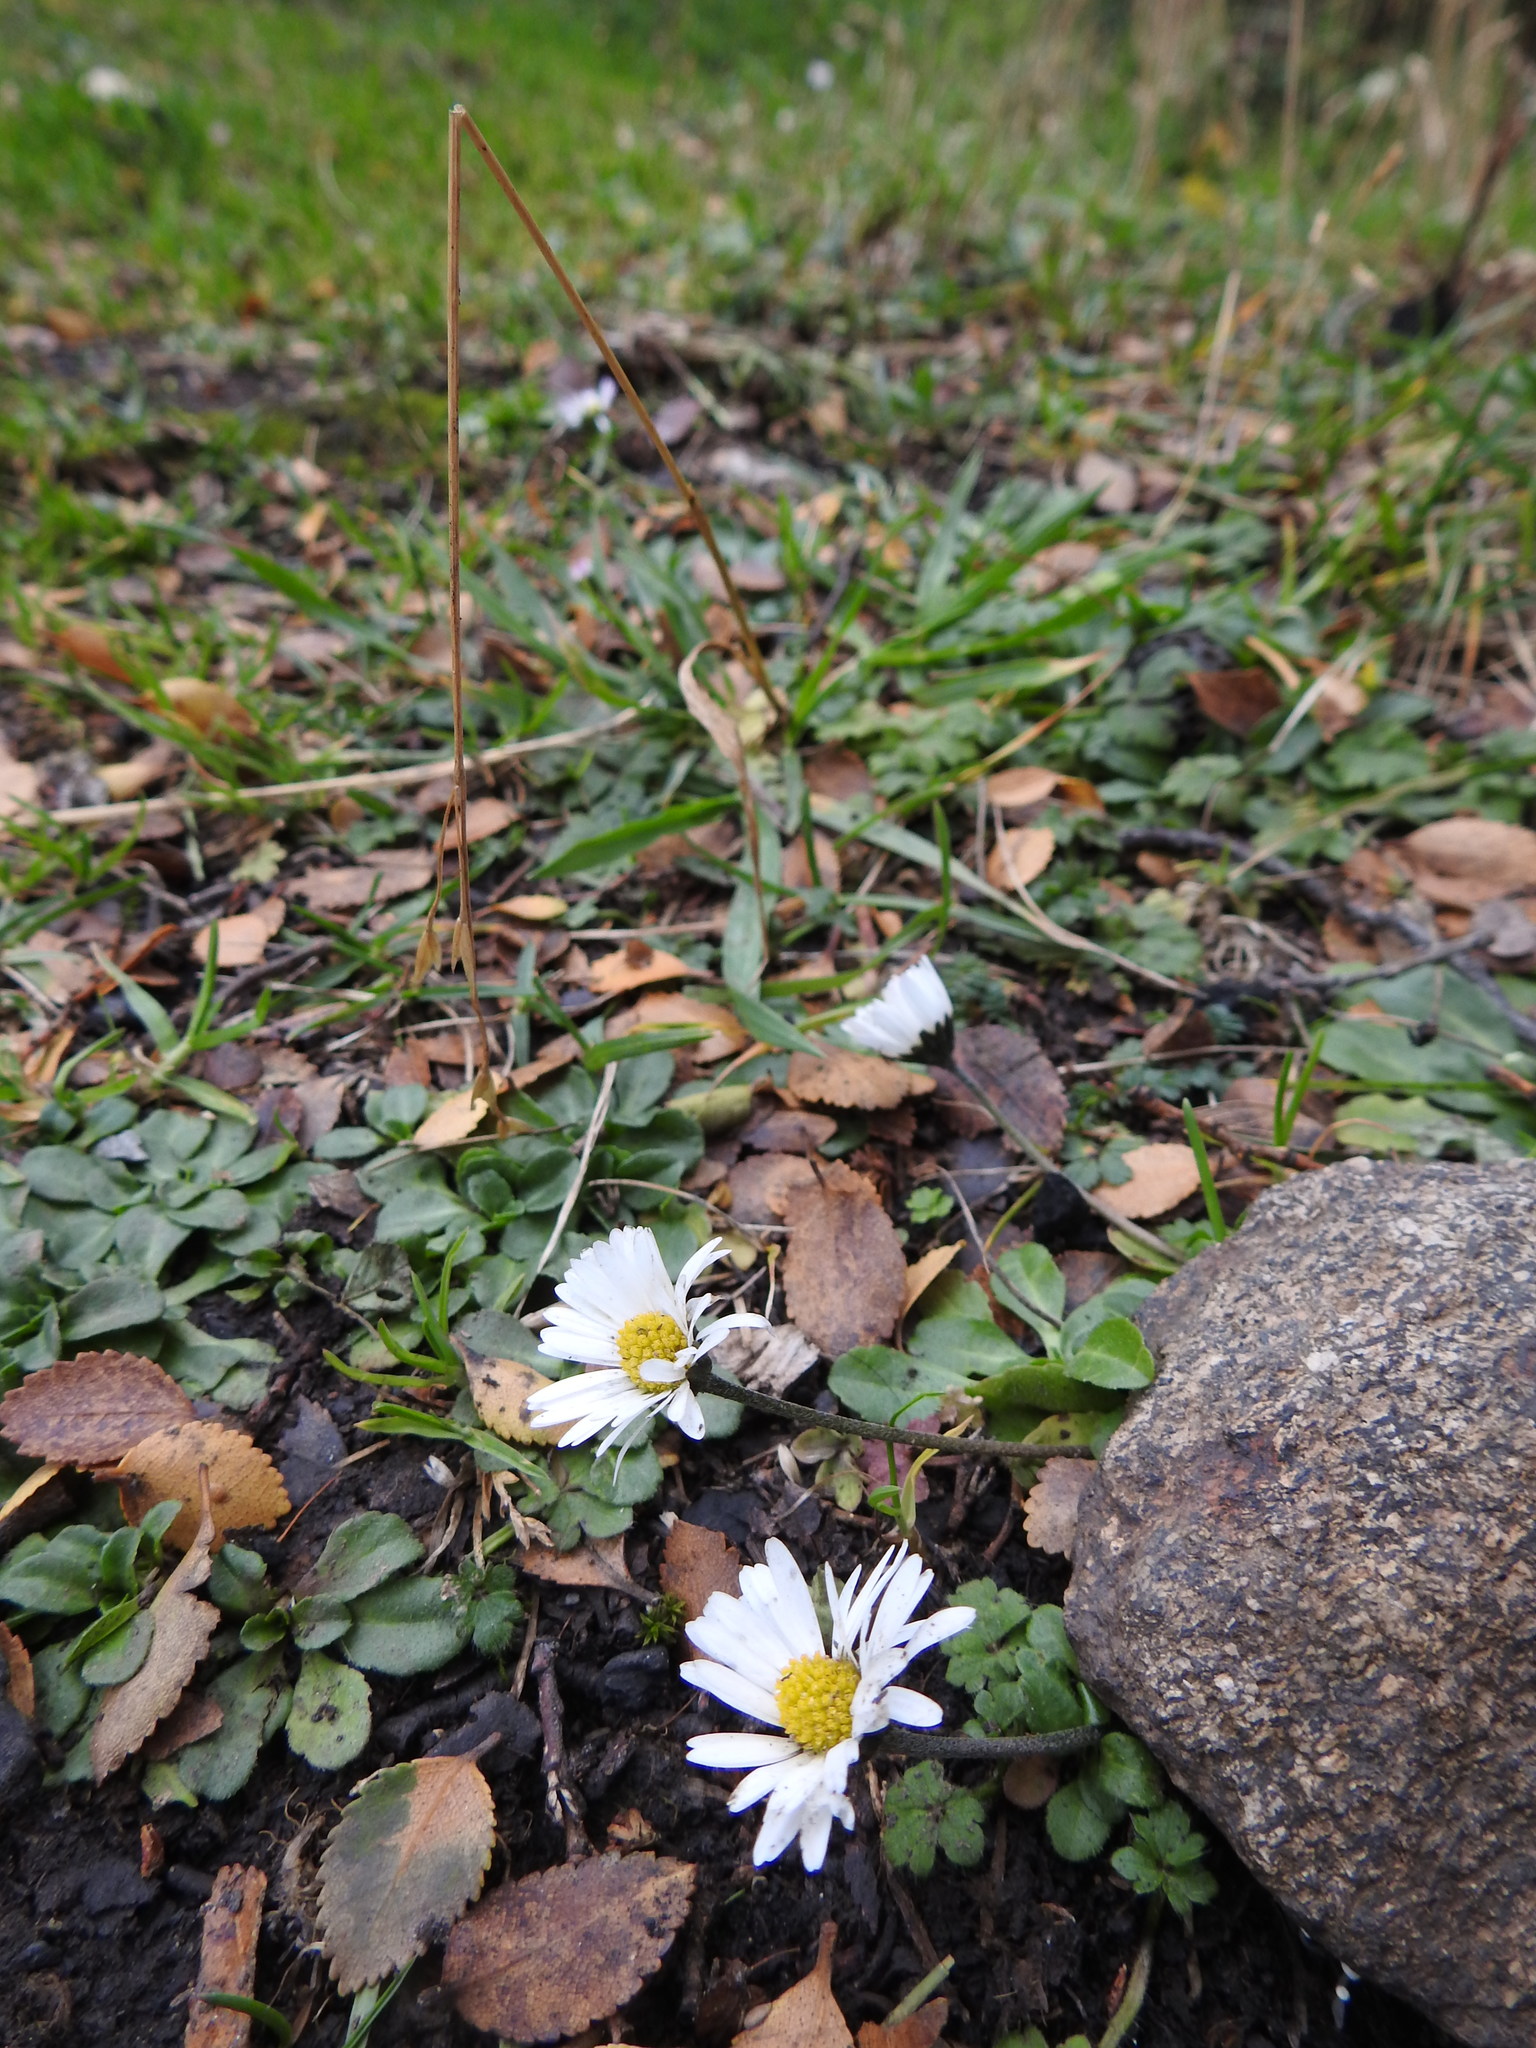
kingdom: Plantae
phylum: Tracheophyta
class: Magnoliopsida
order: Asterales
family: Asteraceae
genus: Bellis
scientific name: Bellis perennis
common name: Lawndaisy
